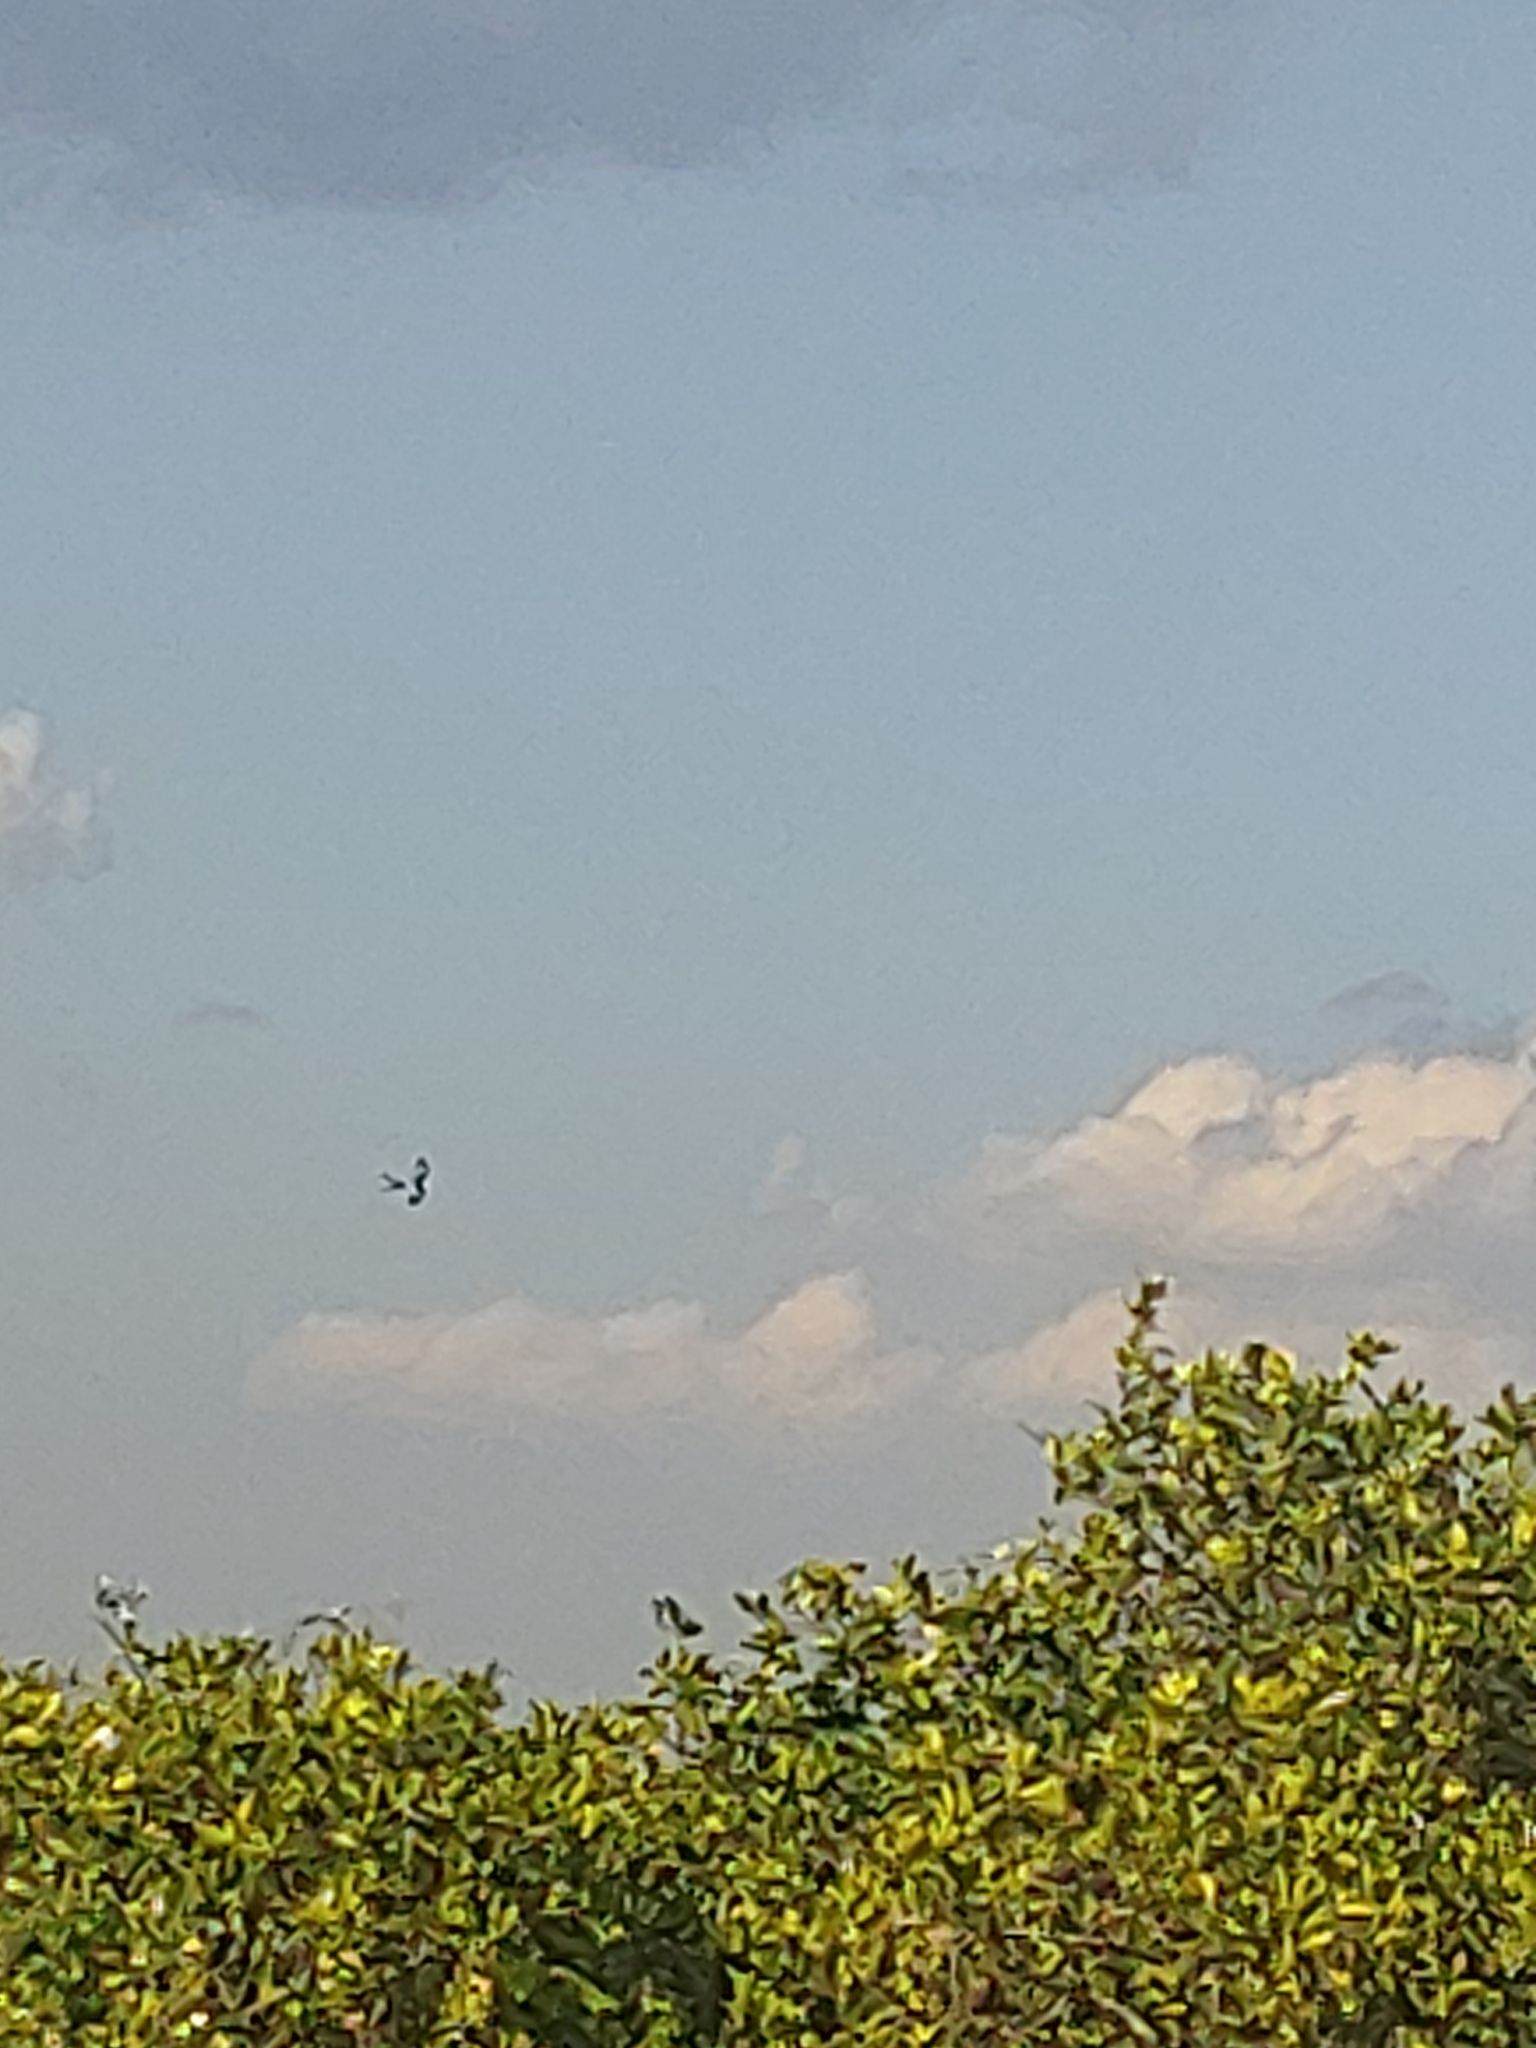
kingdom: Animalia
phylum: Chordata
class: Aves
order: Accipitriformes
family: Accipitridae
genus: Elanoides
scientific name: Elanoides forficatus
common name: Swallow-tailed kite
